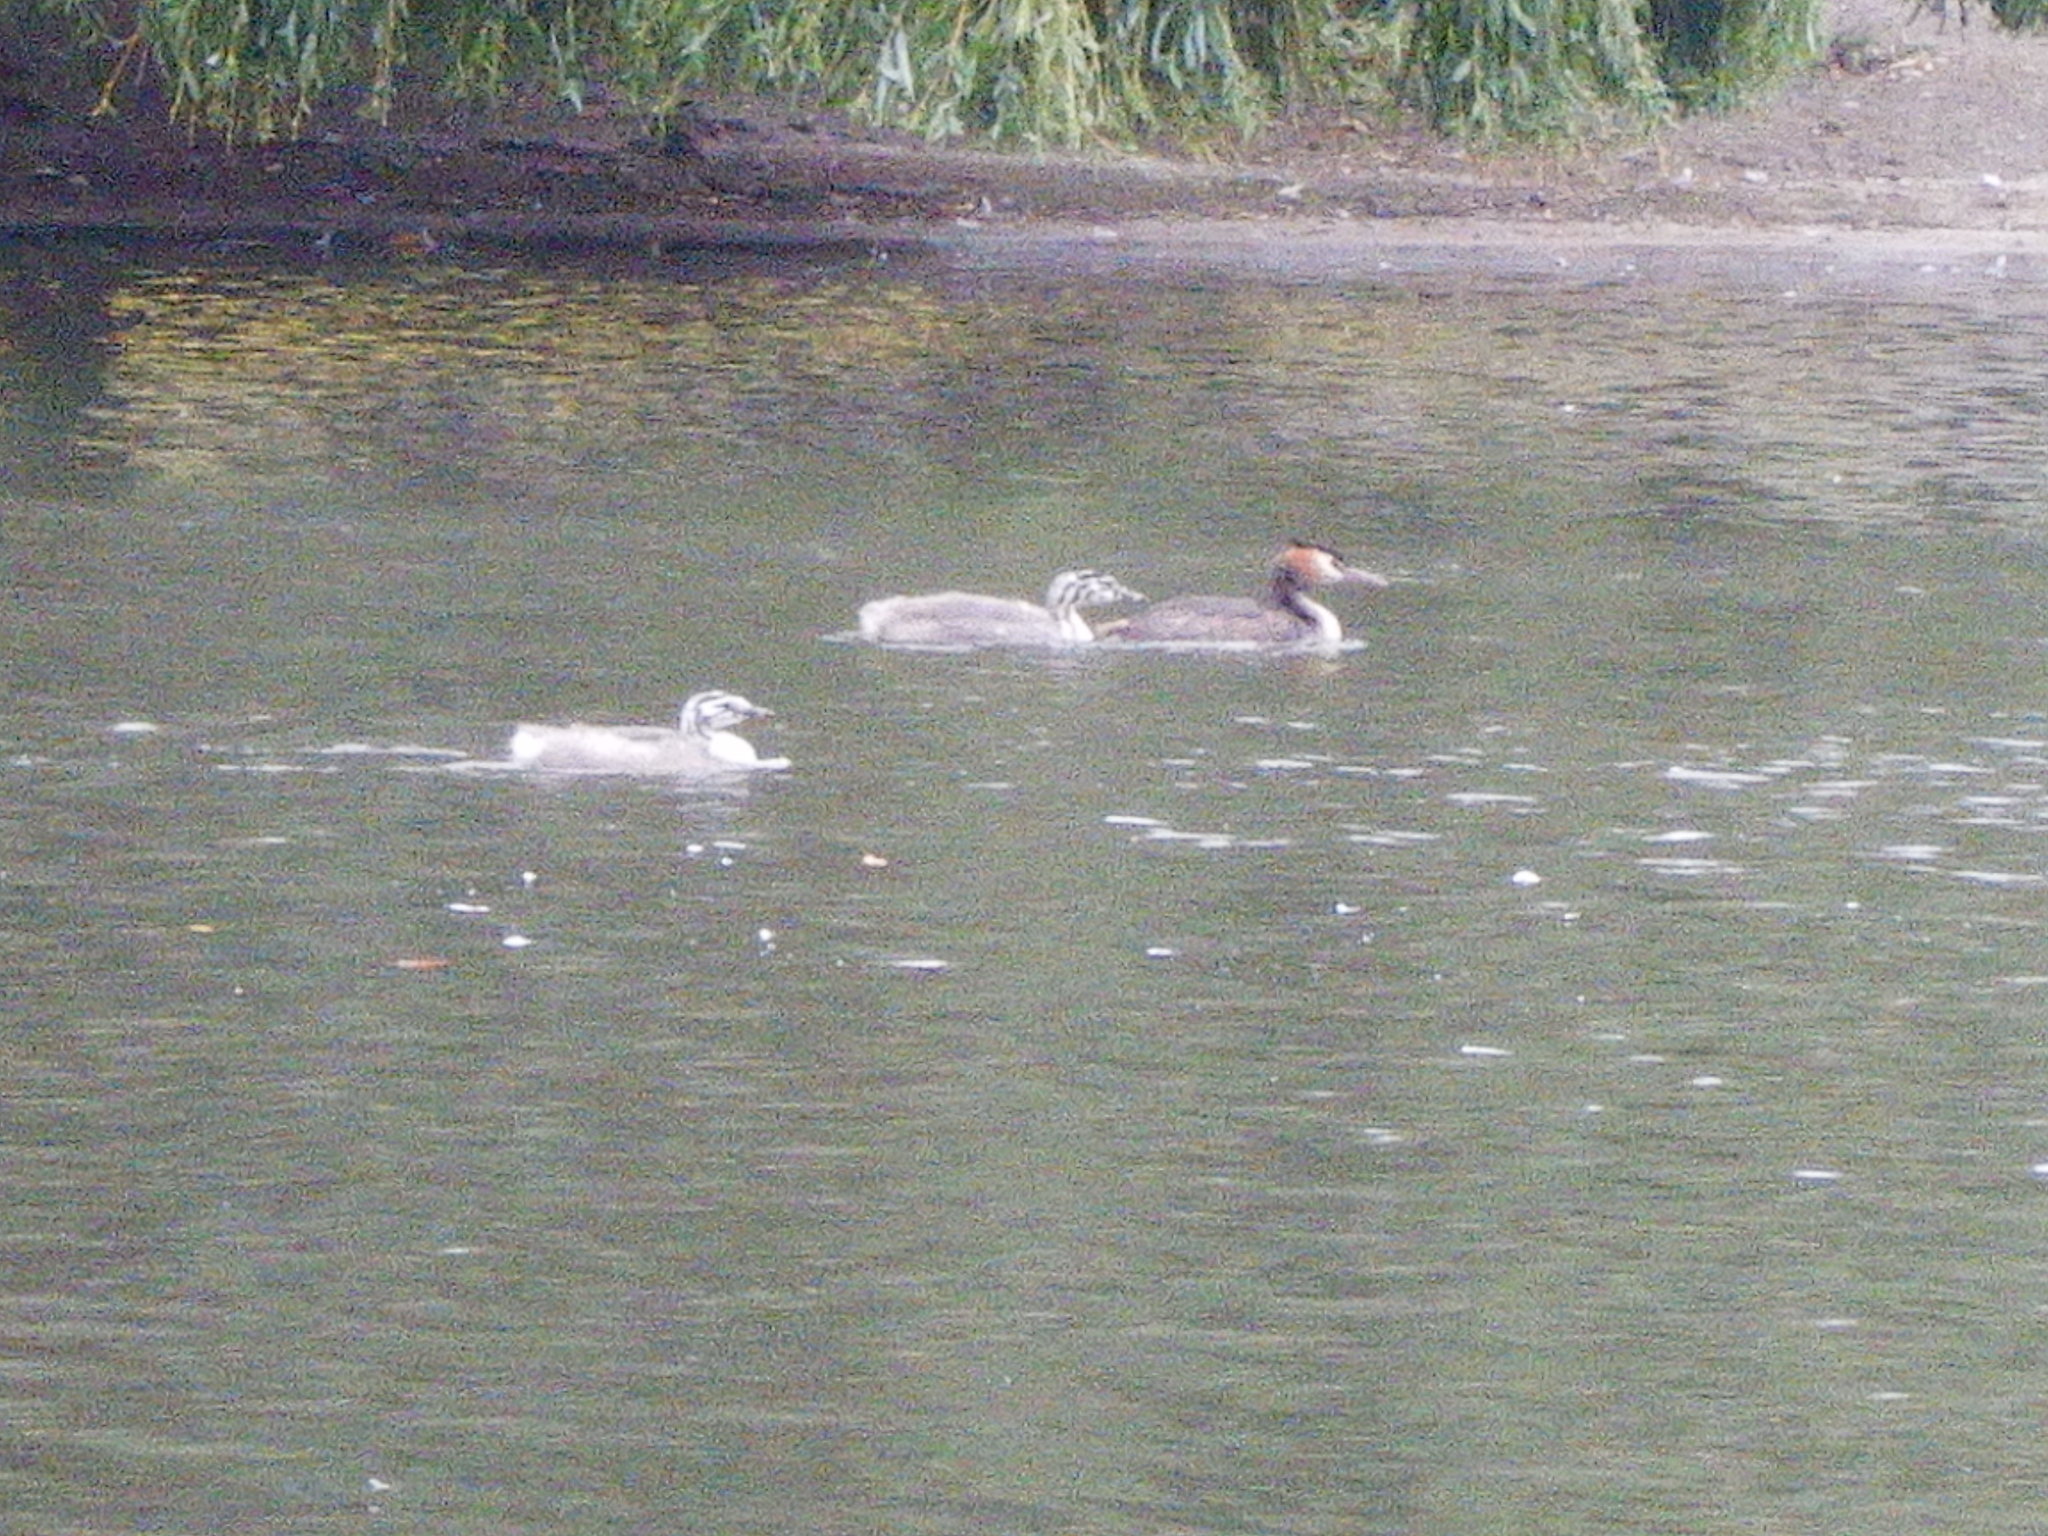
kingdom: Animalia
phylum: Chordata
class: Aves
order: Podicipediformes
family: Podicipedidae
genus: Podiceps
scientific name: Podiceps cristatus
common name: Great crested grebe
